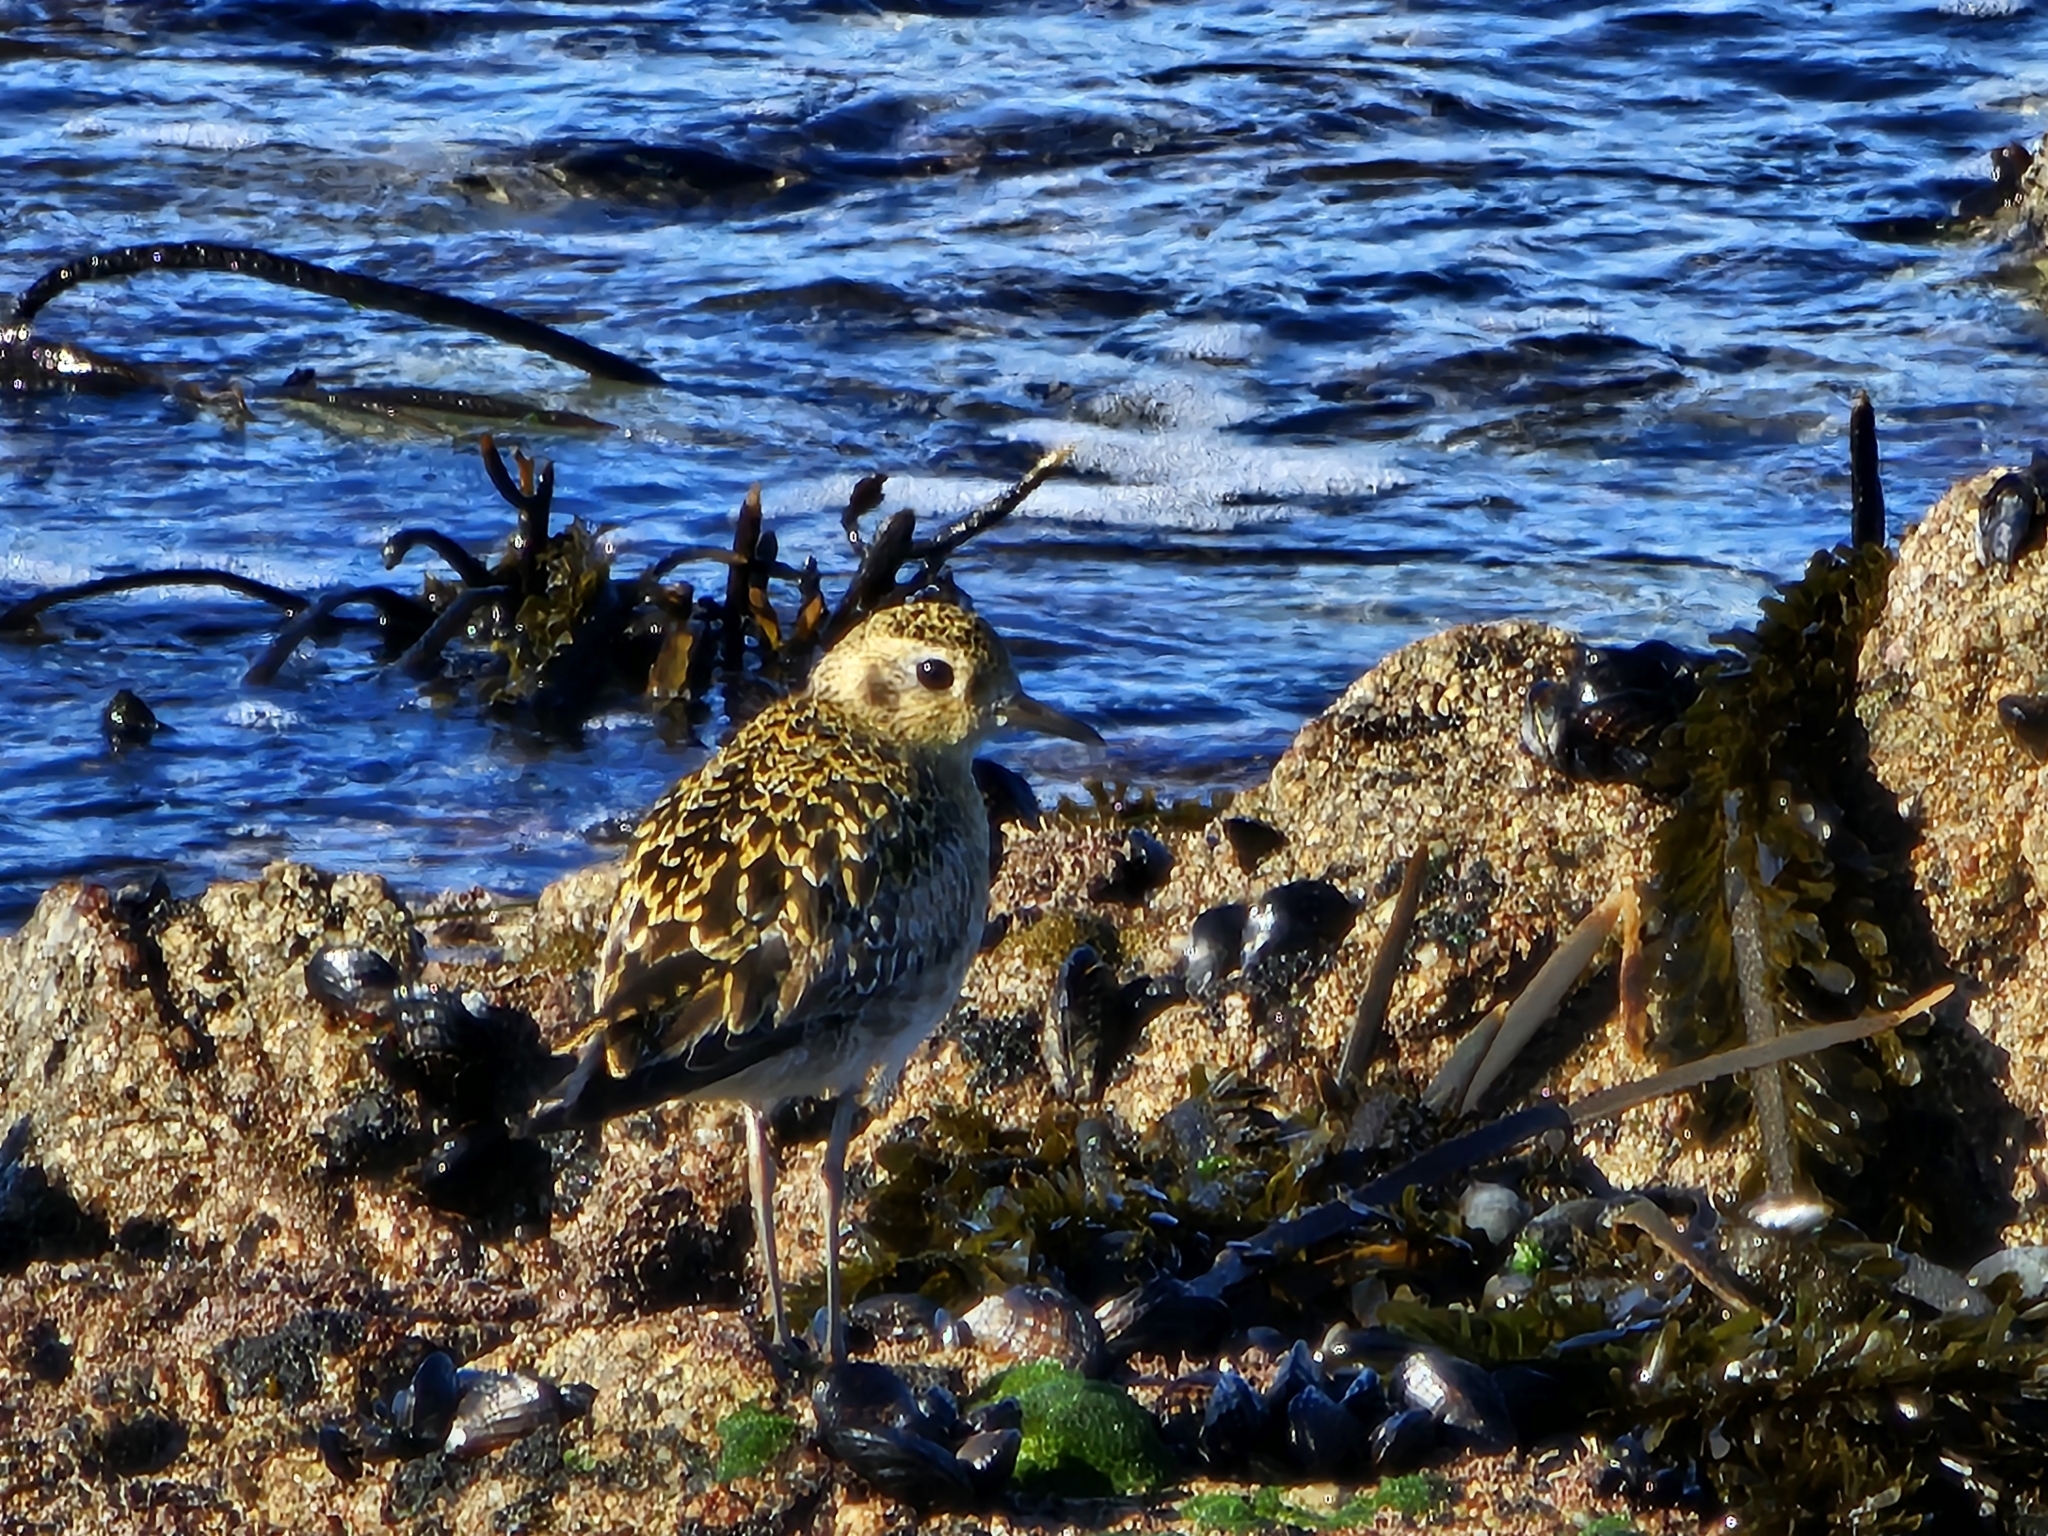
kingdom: Animalia
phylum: Chordata
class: Aves
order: Charadriiformes
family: Charadriidae
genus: Pluvialis
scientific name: Pluvialis fulva
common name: Pacific golden plover
